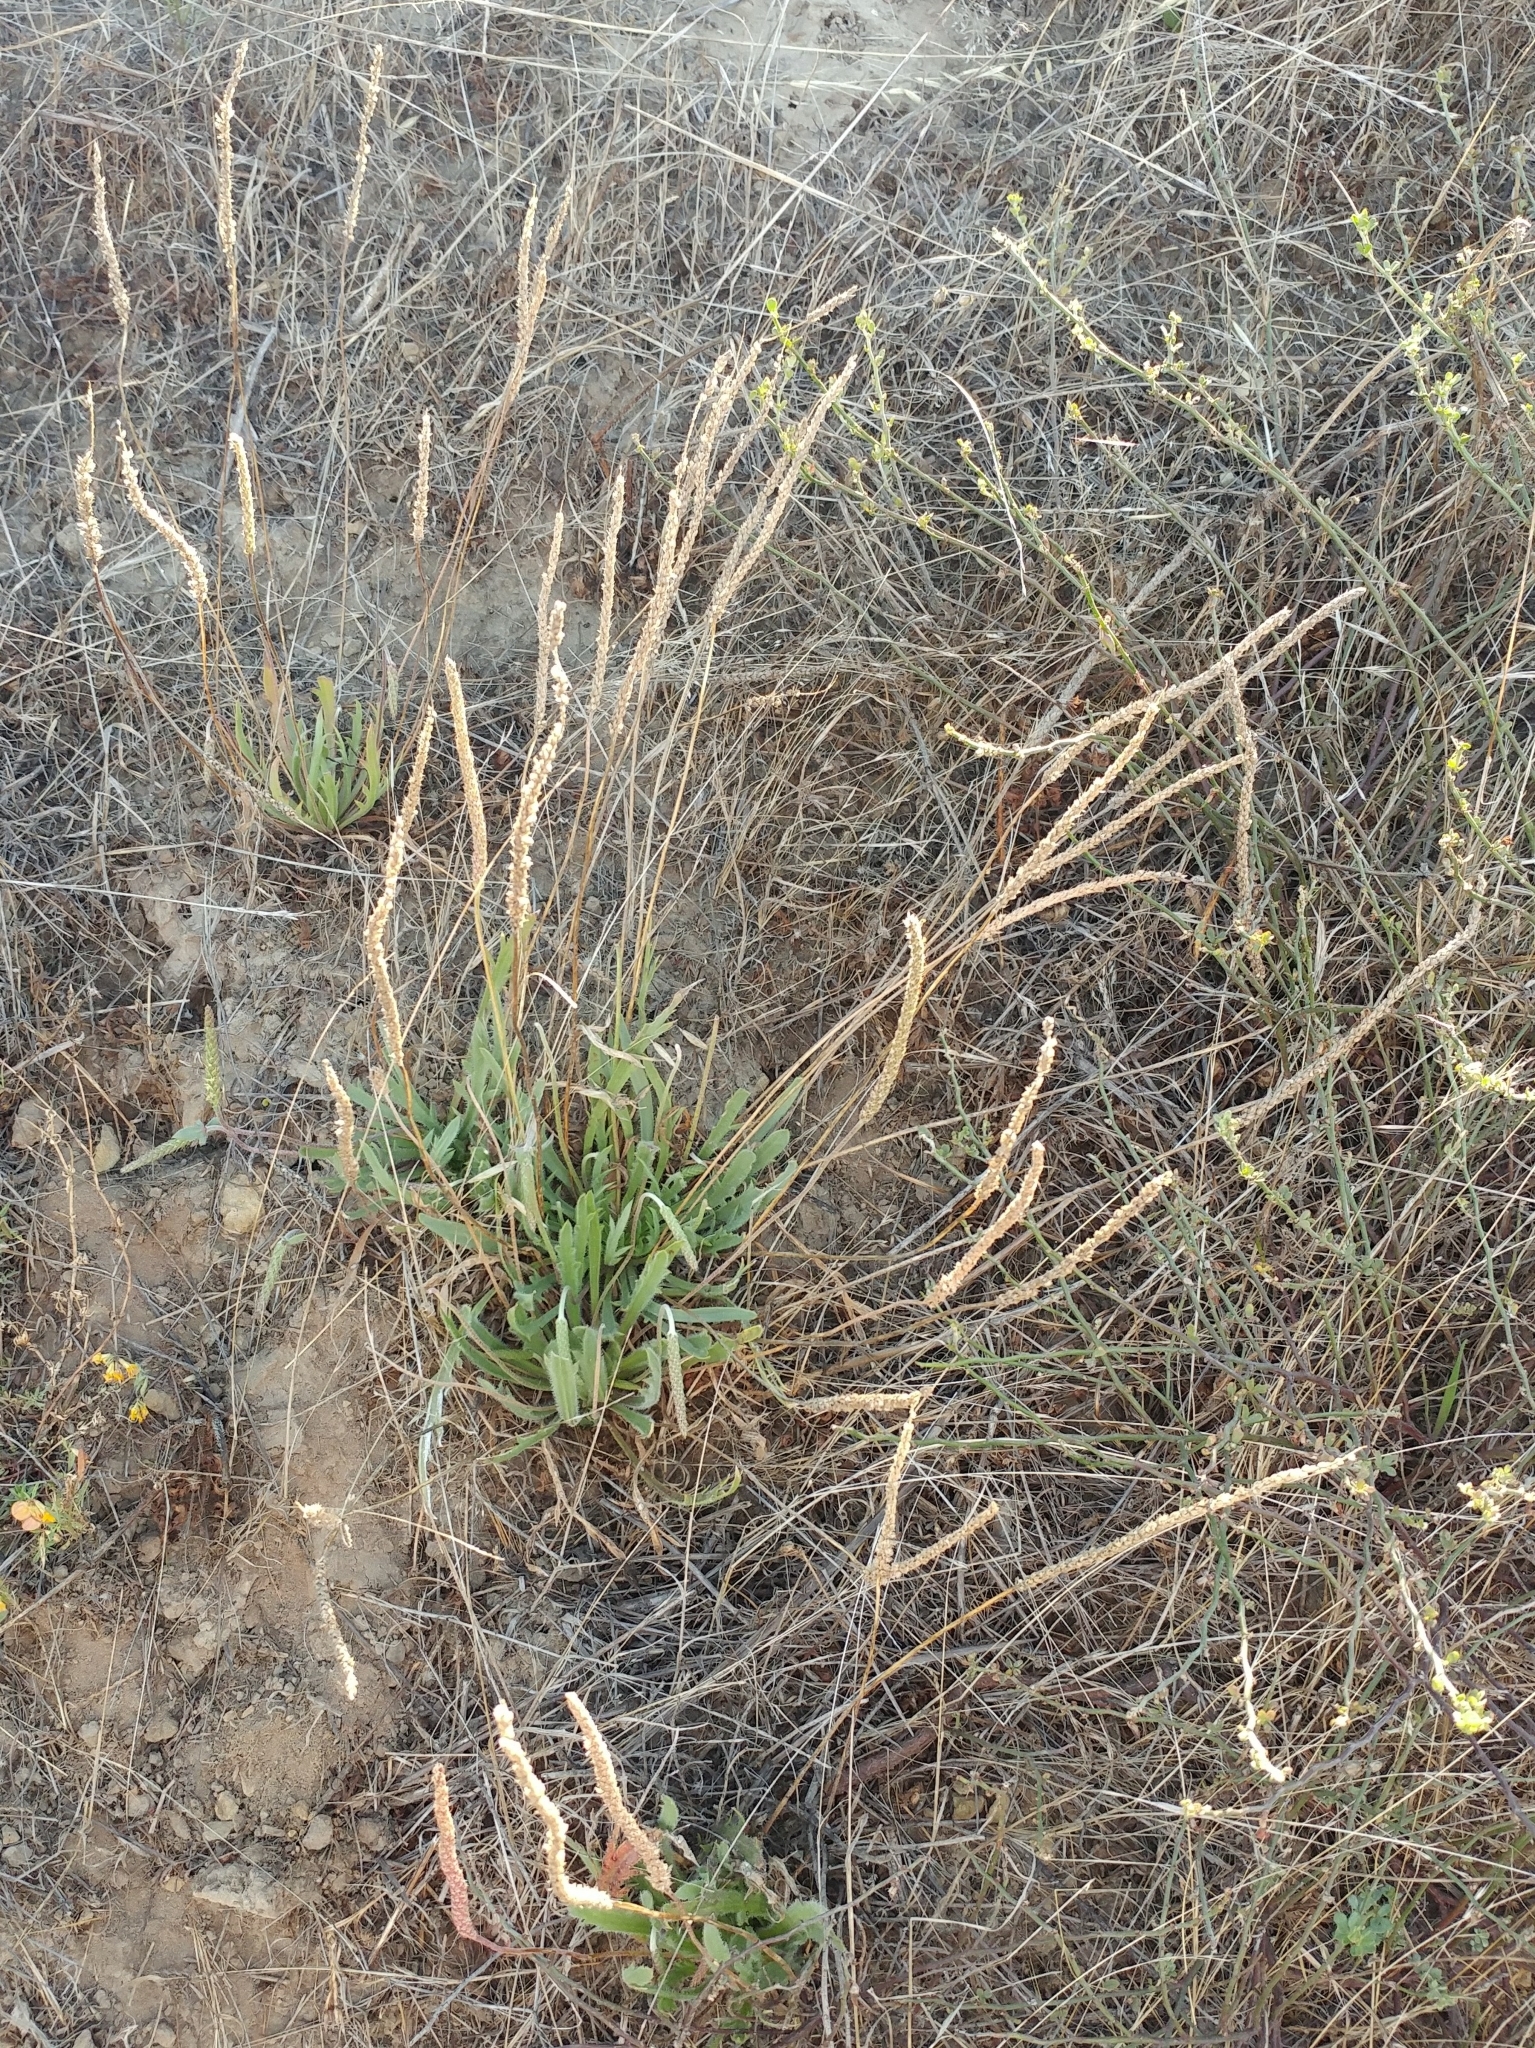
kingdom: Plantae
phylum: Tracheophyta
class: Magnoliopsida
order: Lamiales
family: Plantaginaceae
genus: Plantago
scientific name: Plantago coronopus
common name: Buck's-horn plantain
